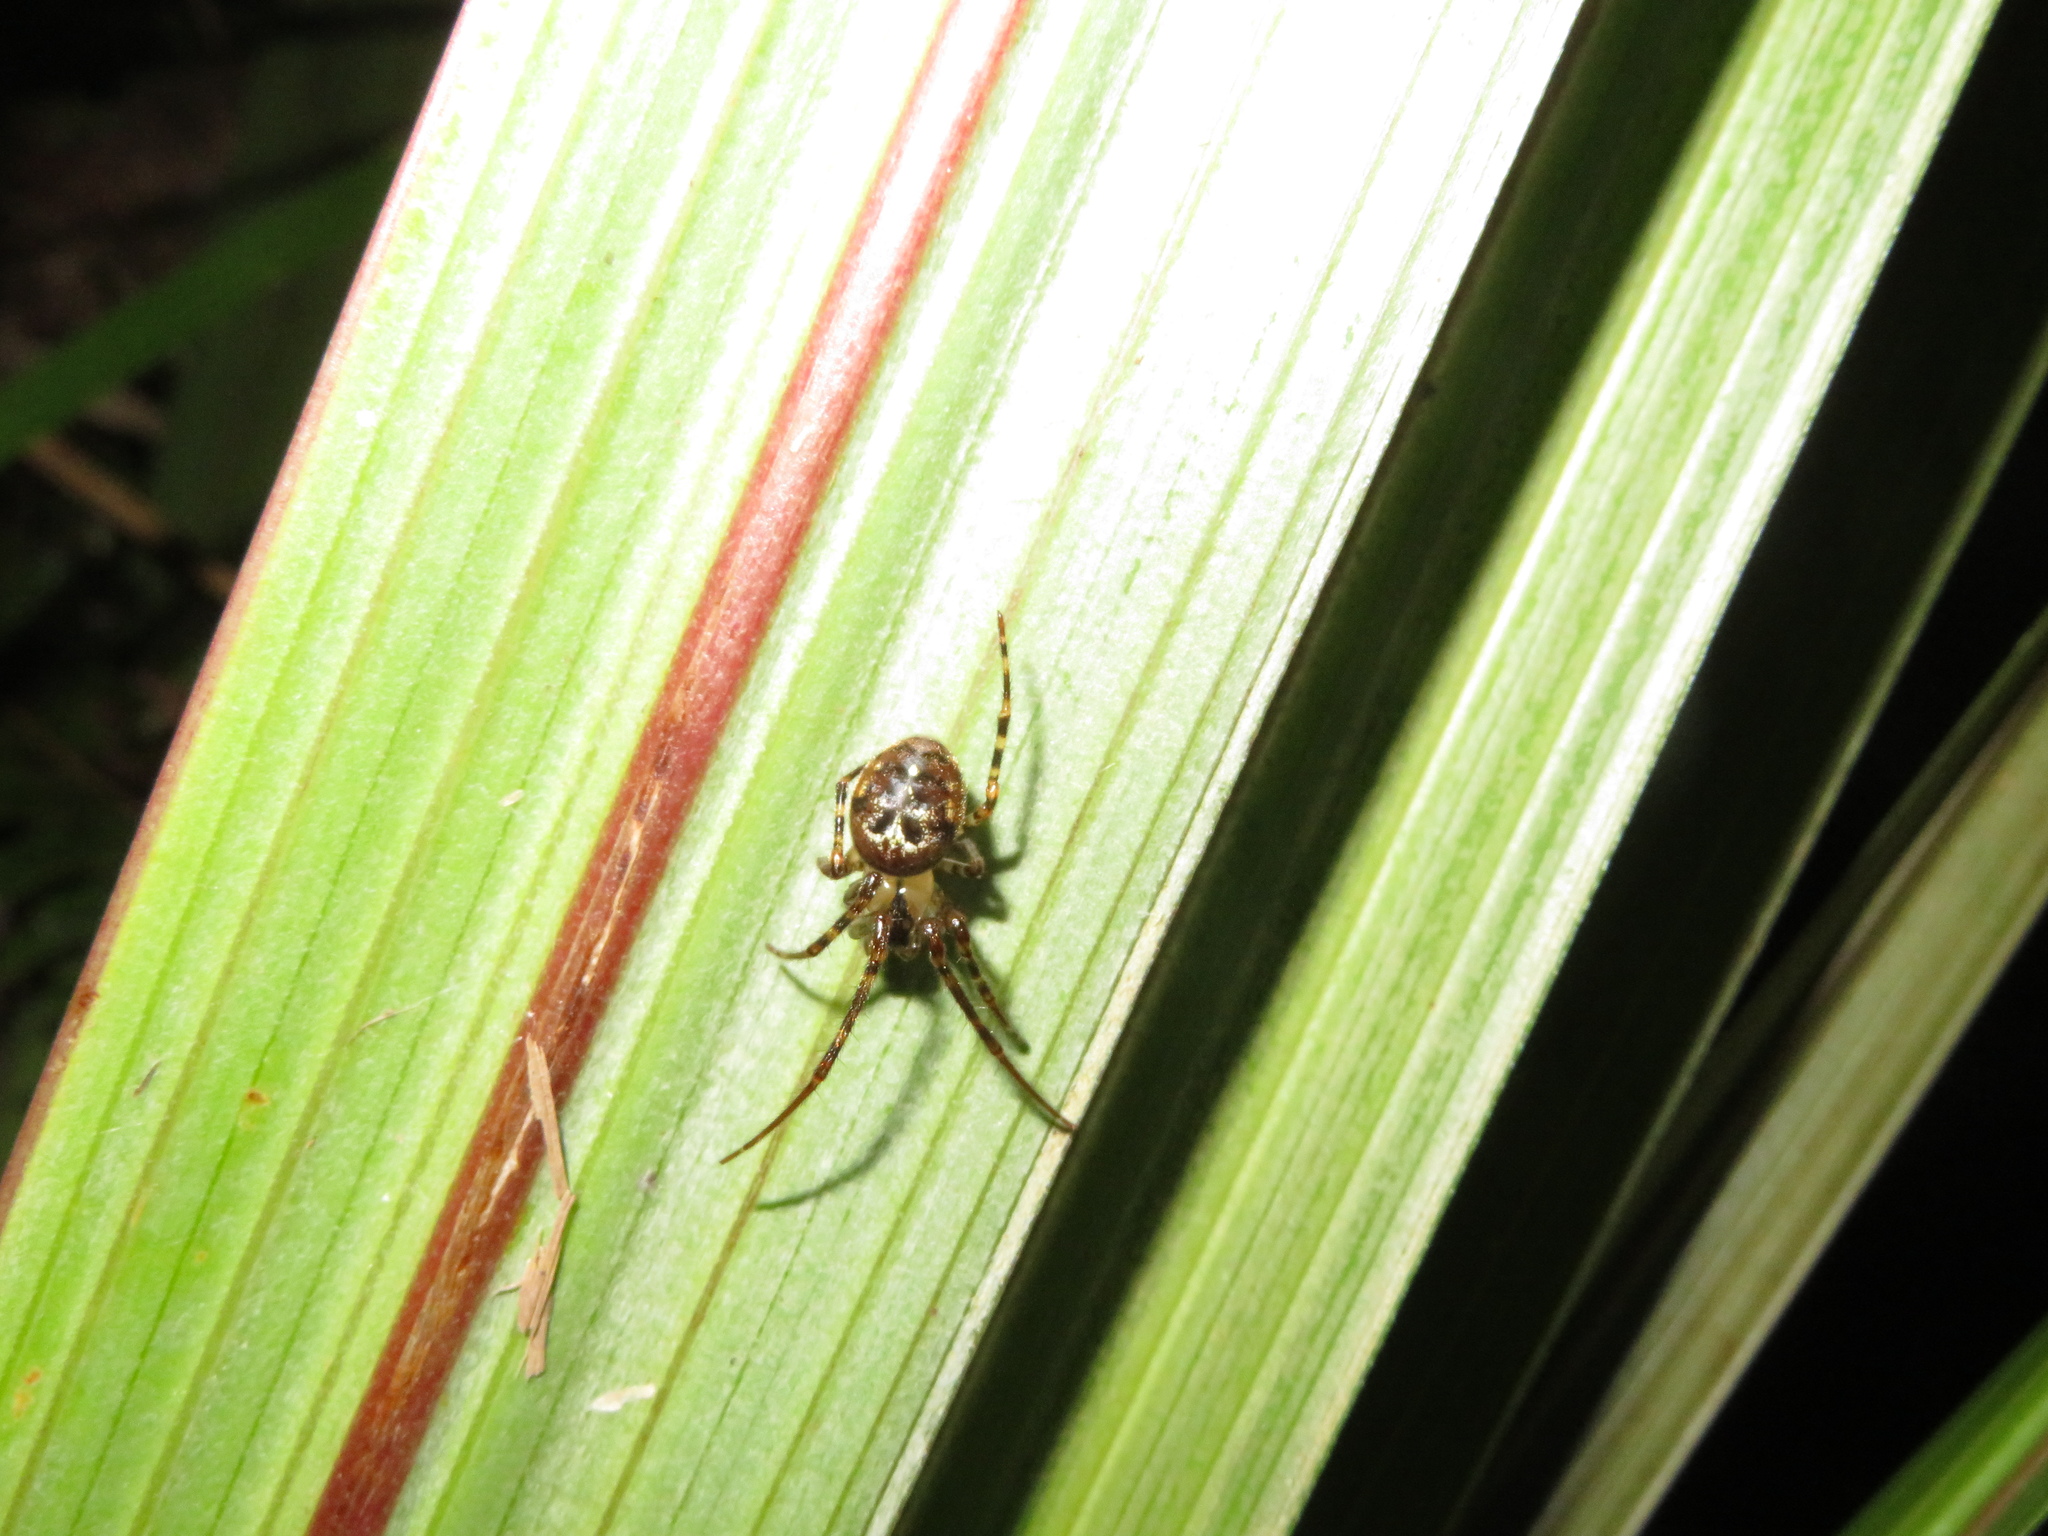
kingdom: Animalia
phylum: Arthropoda
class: Arachnida
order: Araneae
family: Tetragnathidae
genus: Taraire
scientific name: Taraire rufolineata
